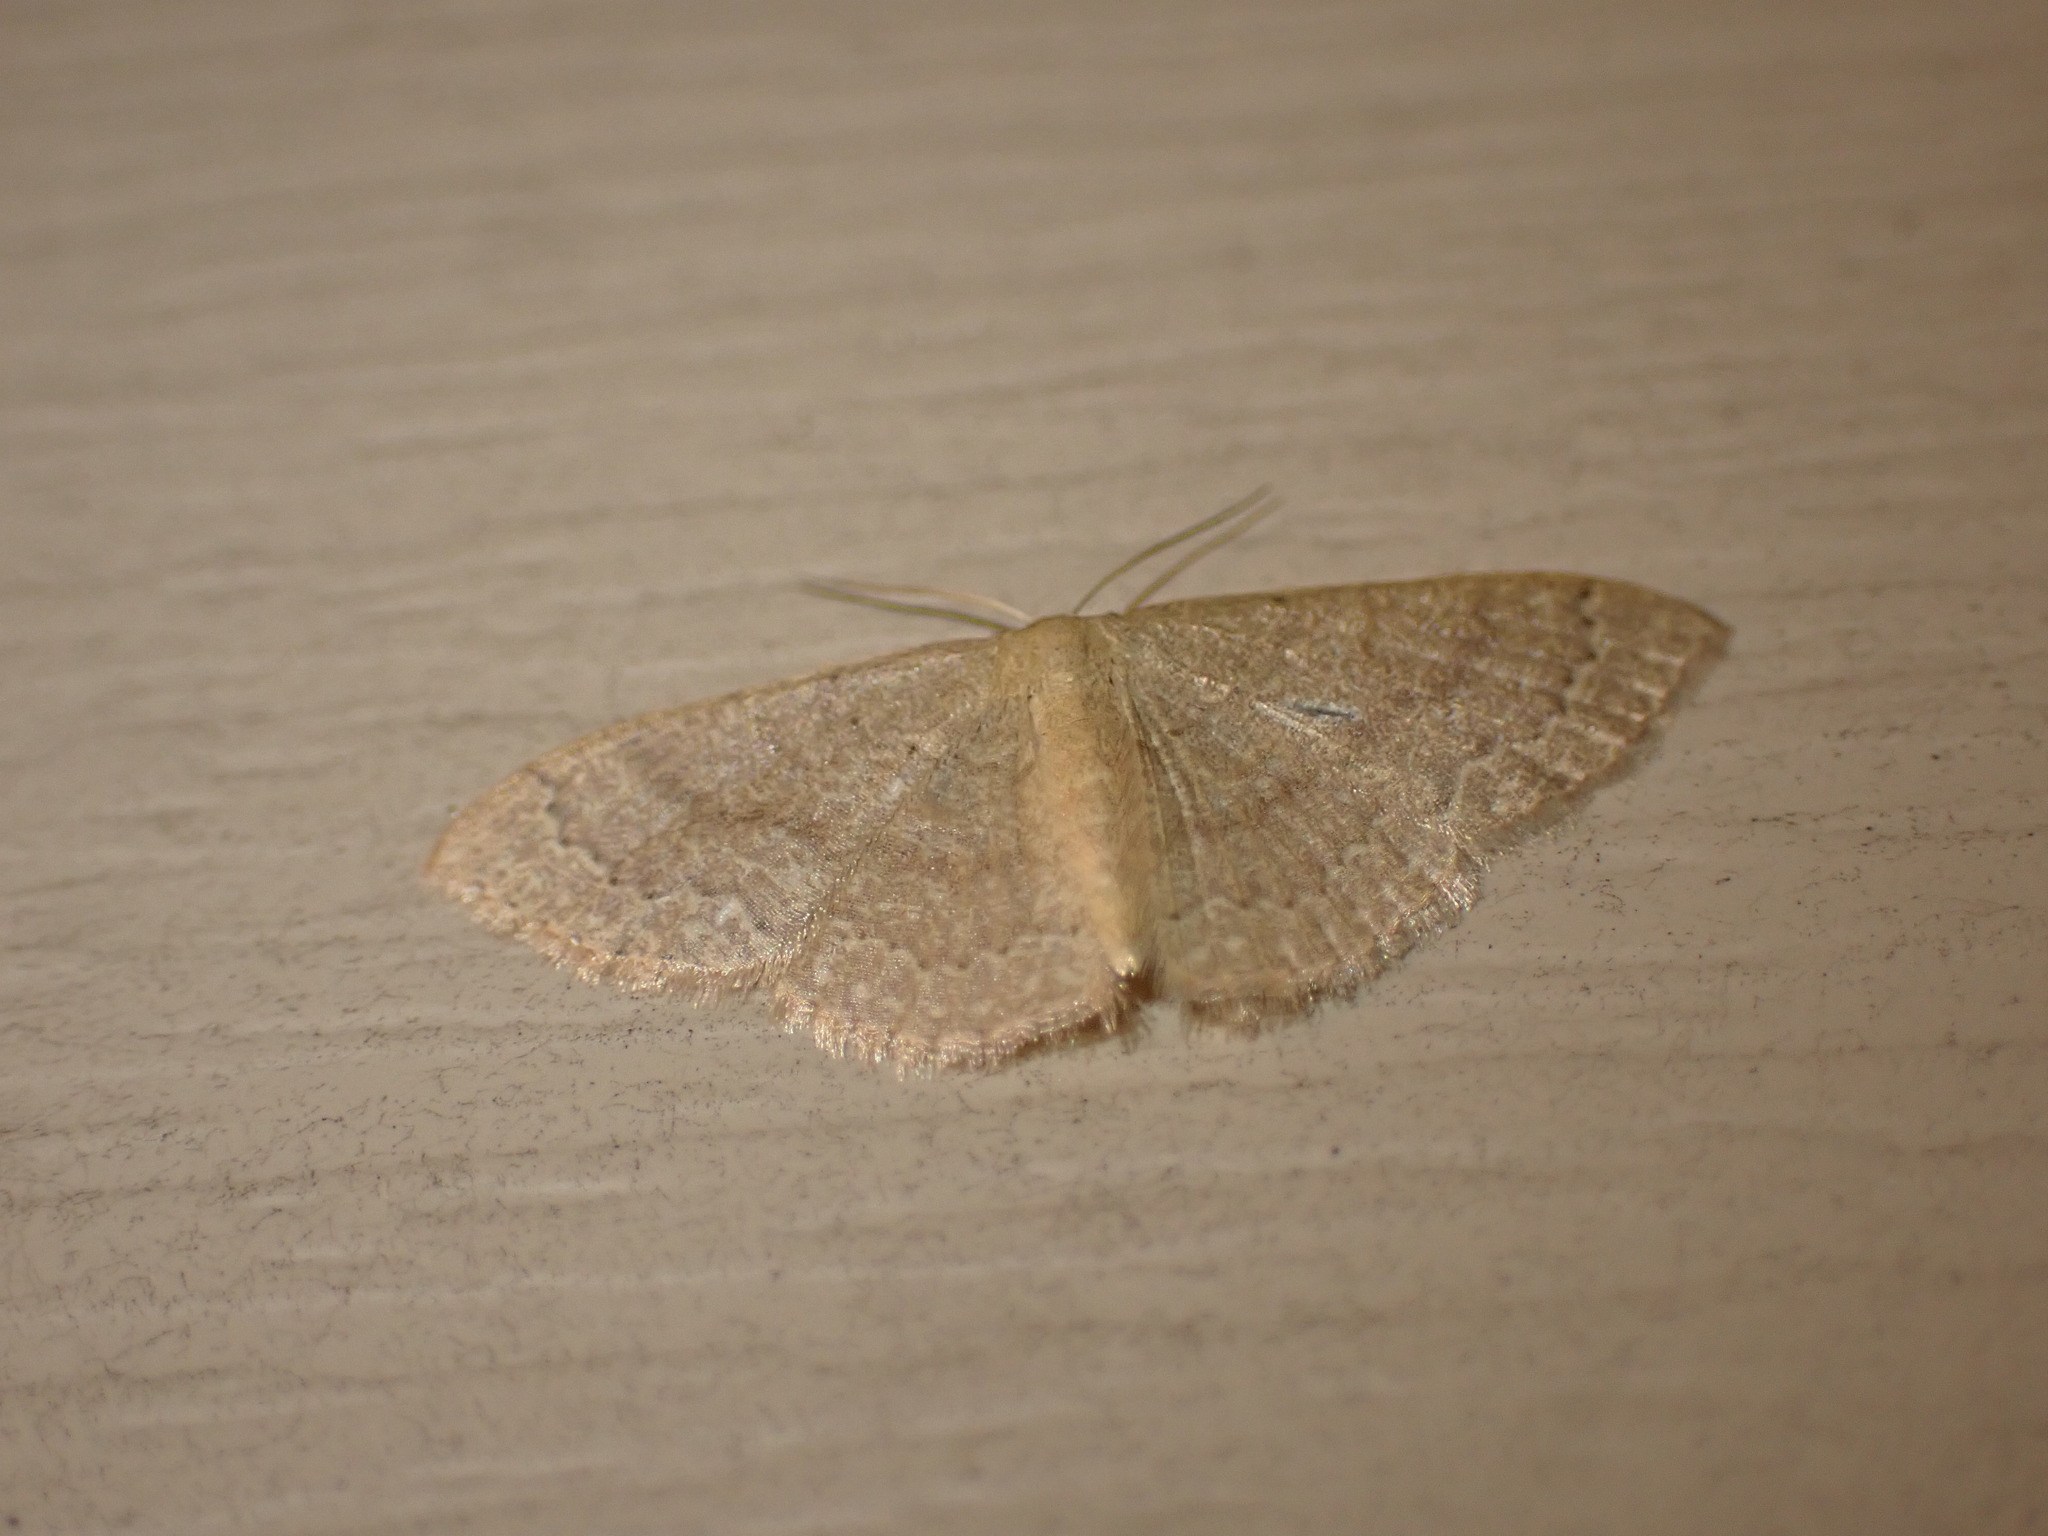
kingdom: Animalia
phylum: Arthropoda
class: Insecta
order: Lepidoptera
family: Geometridae
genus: Pleuroprucha
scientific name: Pleuroprucha insulsaria
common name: Common tan wave
